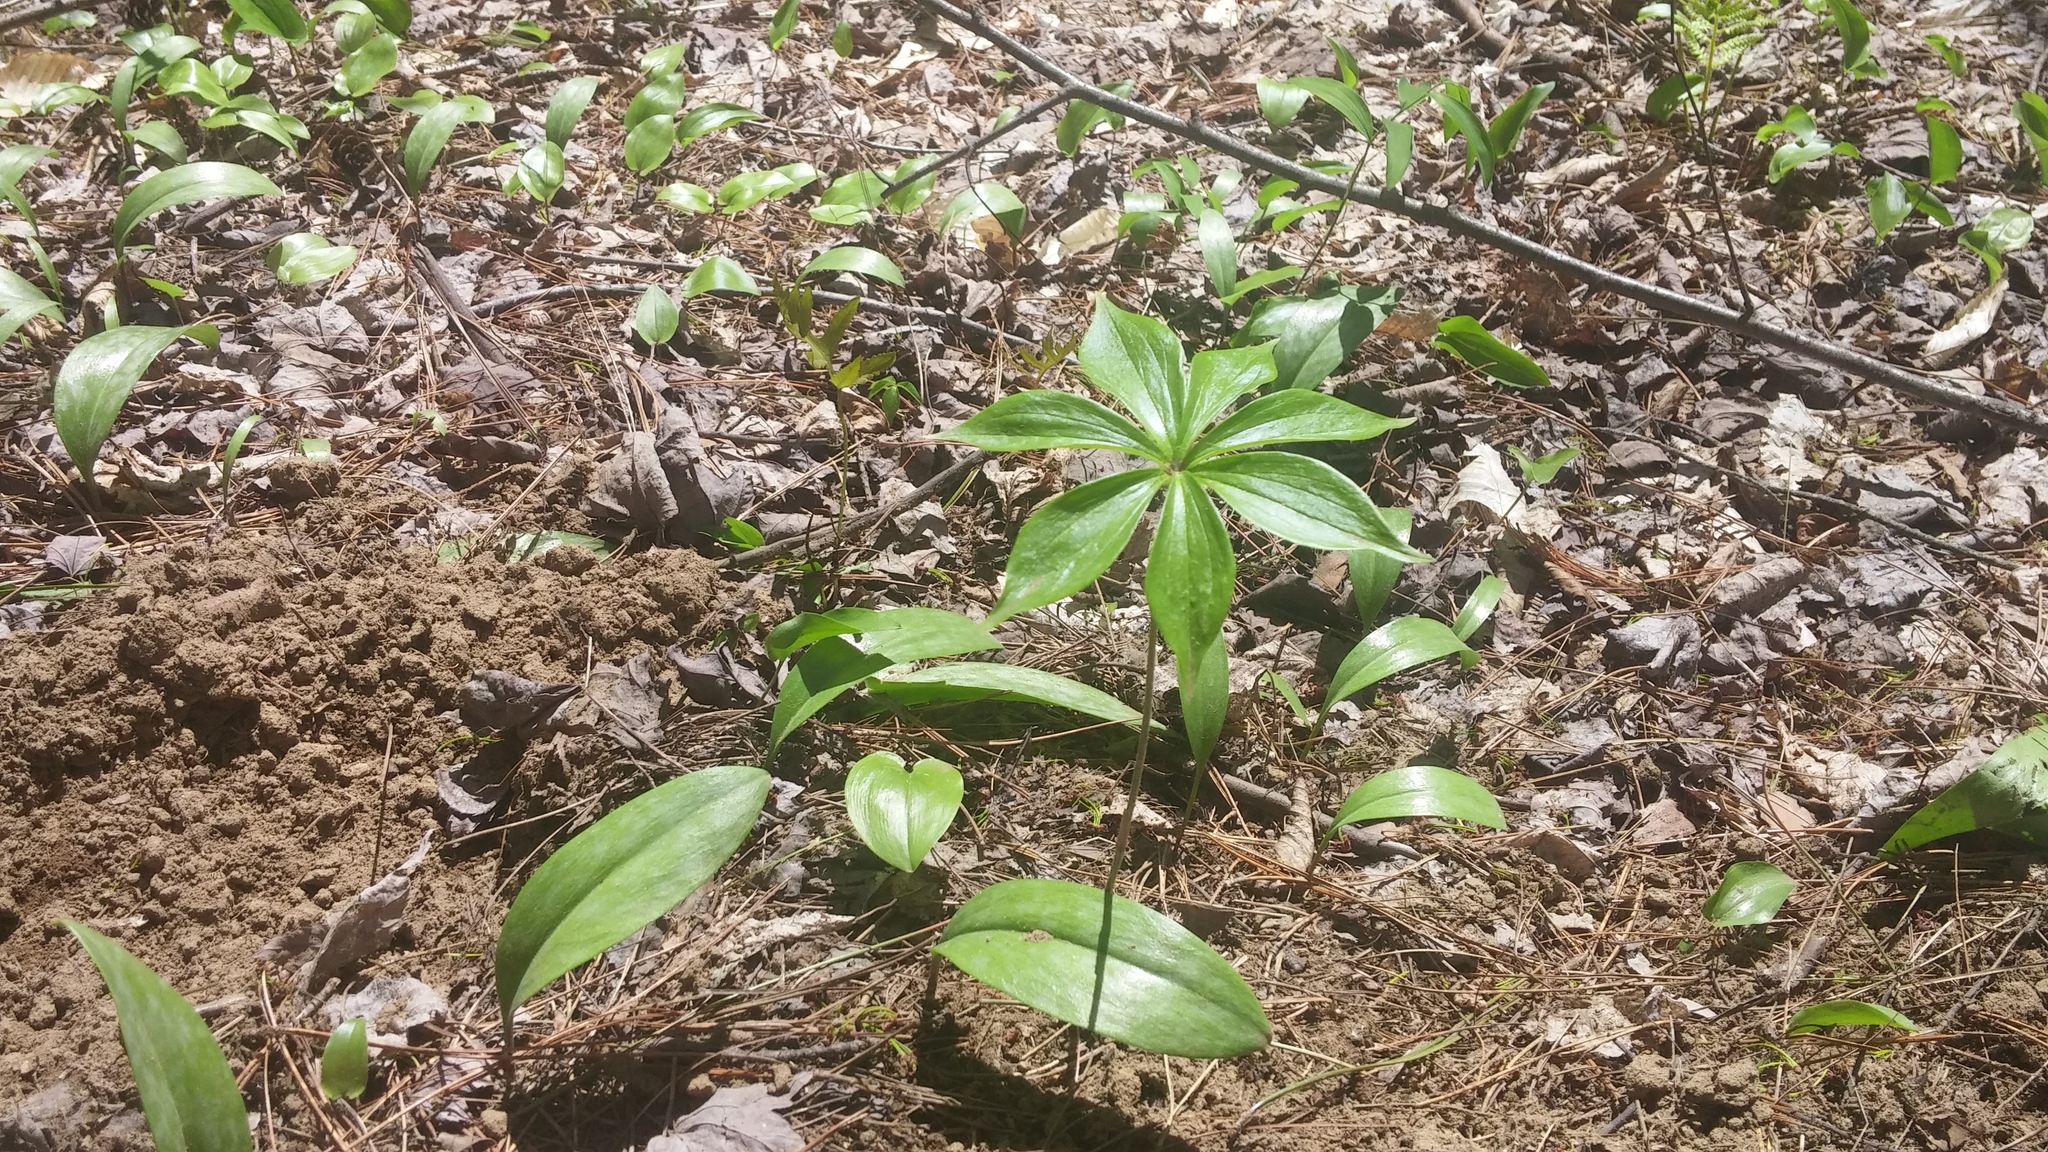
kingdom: Plantae
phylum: Tracheophyta
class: Liliopsida
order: Liliales
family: Liliaceae
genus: Medeola
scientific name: Medeola virginiana
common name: Indian cucumber-root
